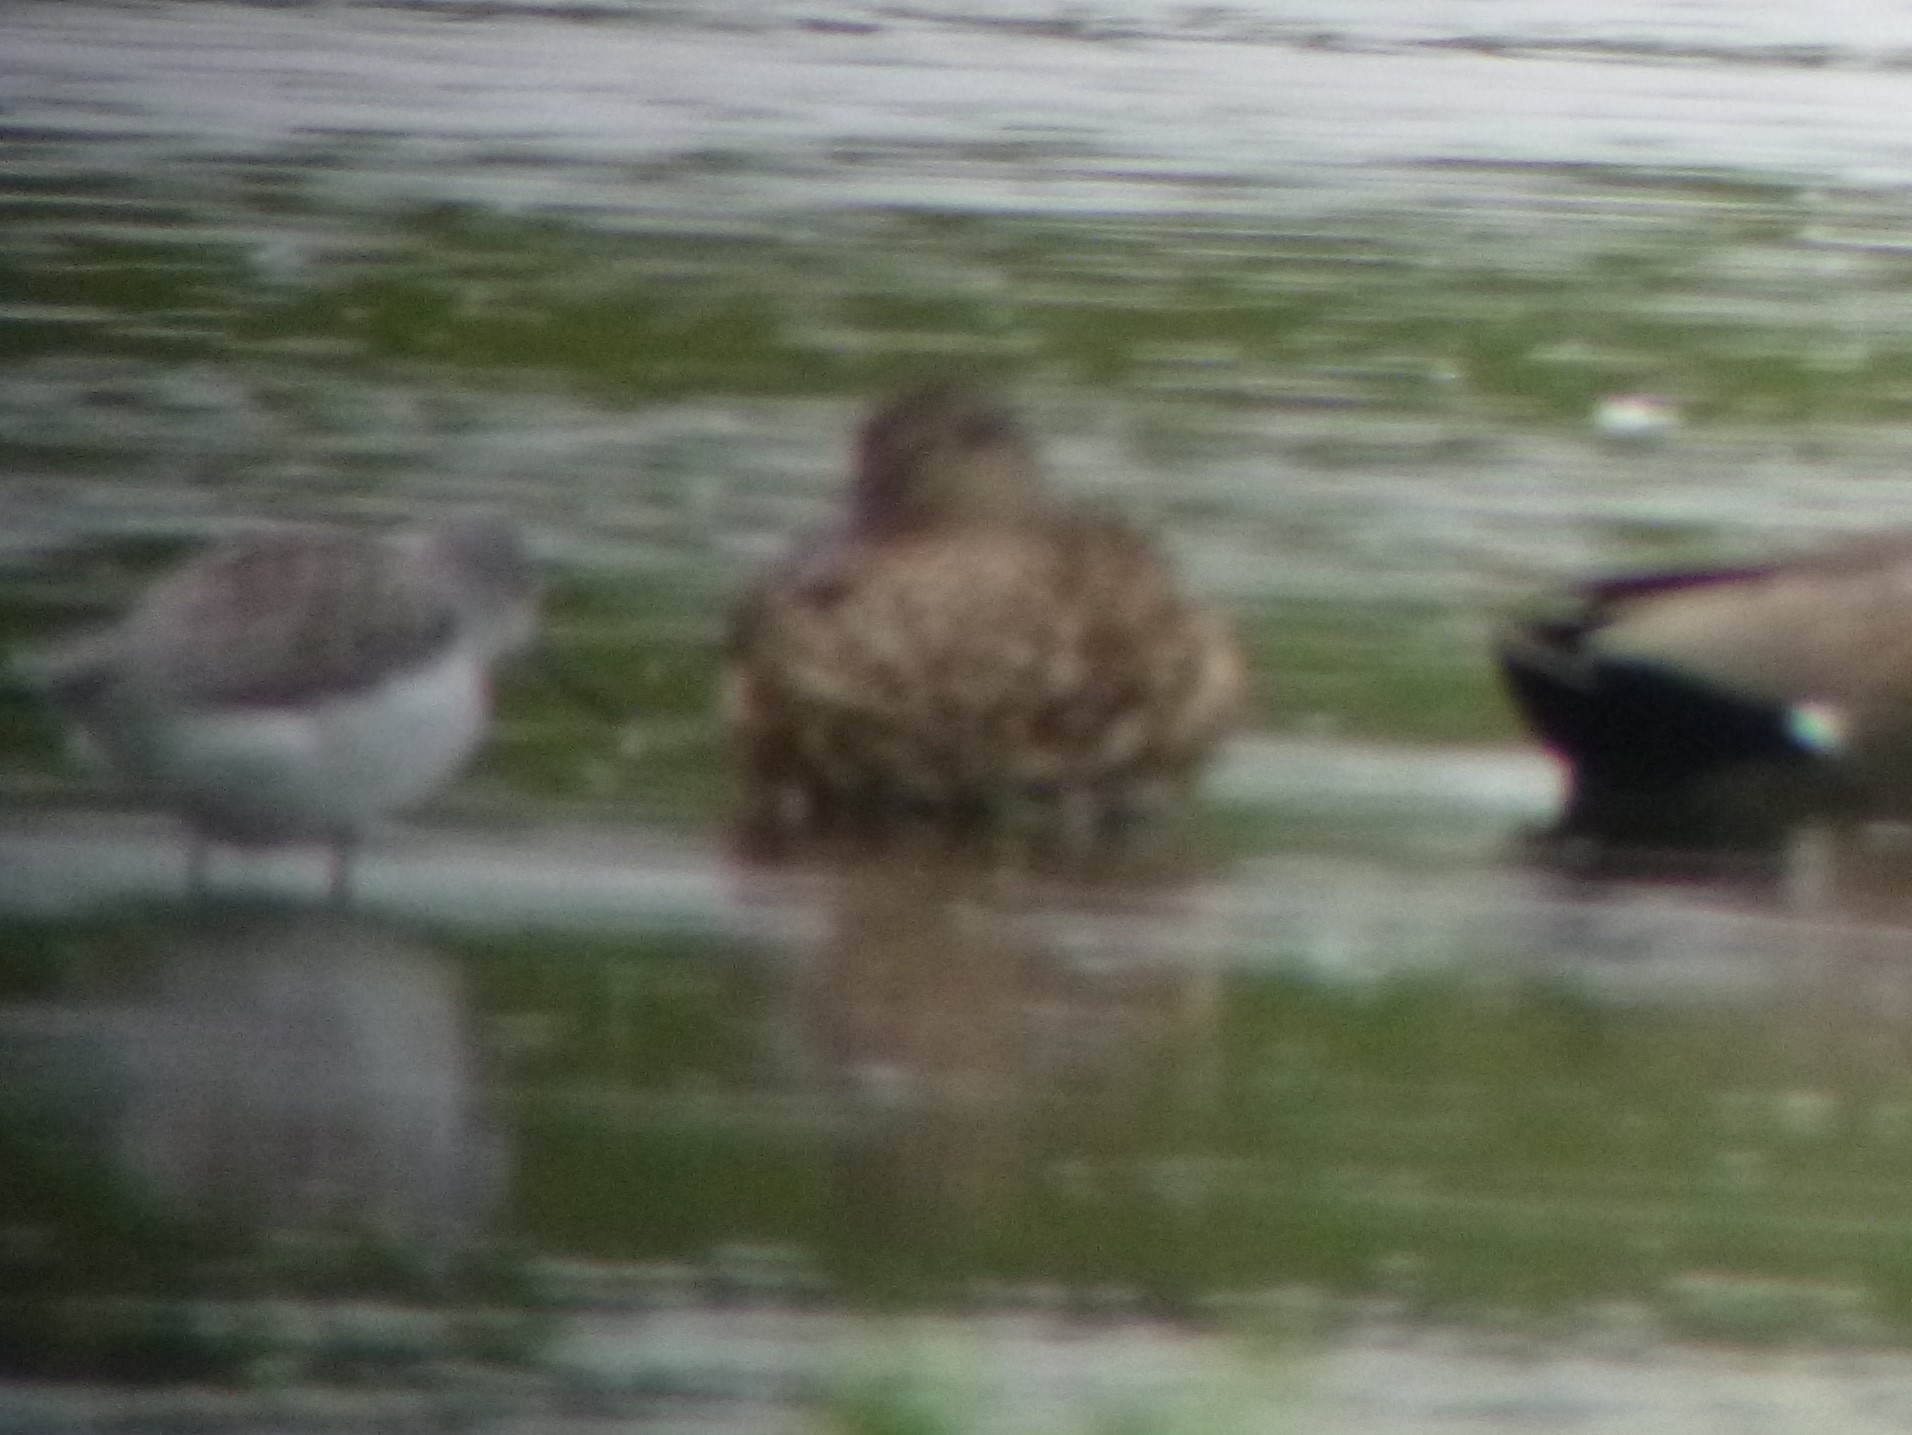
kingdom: Animalia
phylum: Chordata
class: Aves
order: Charadriiformes
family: Scolopacidae
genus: Tringa
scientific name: Tringa nebularia
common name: Common greenshank
